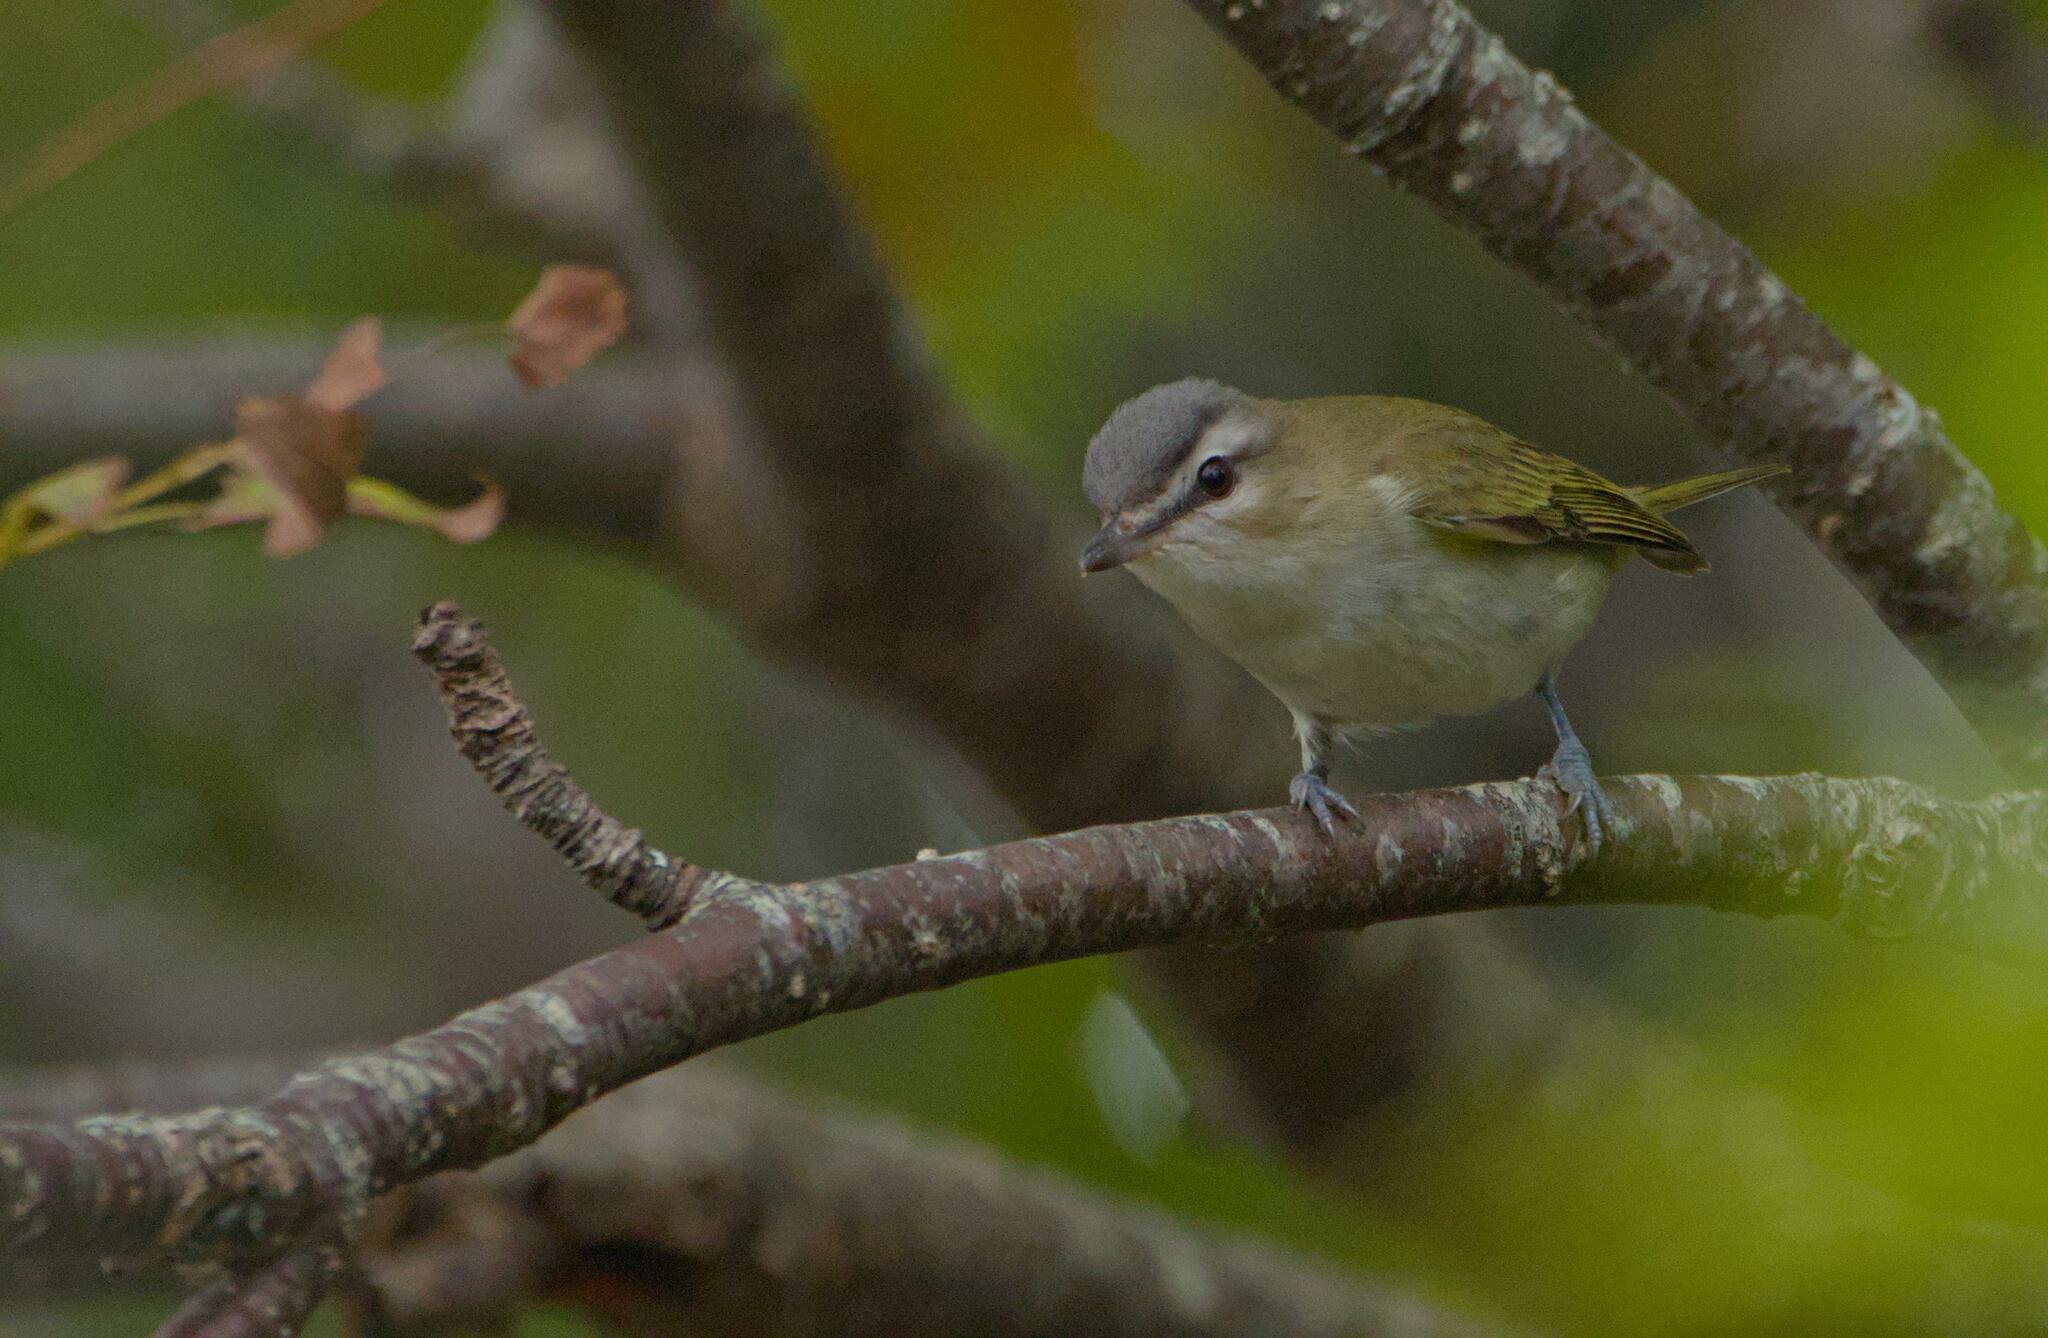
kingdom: Animalia
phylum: Chordata
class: Aves
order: Passeriformes
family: Vireonidae
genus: Vireo
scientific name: Vireo olivaceus
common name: Red-eyed vireo
